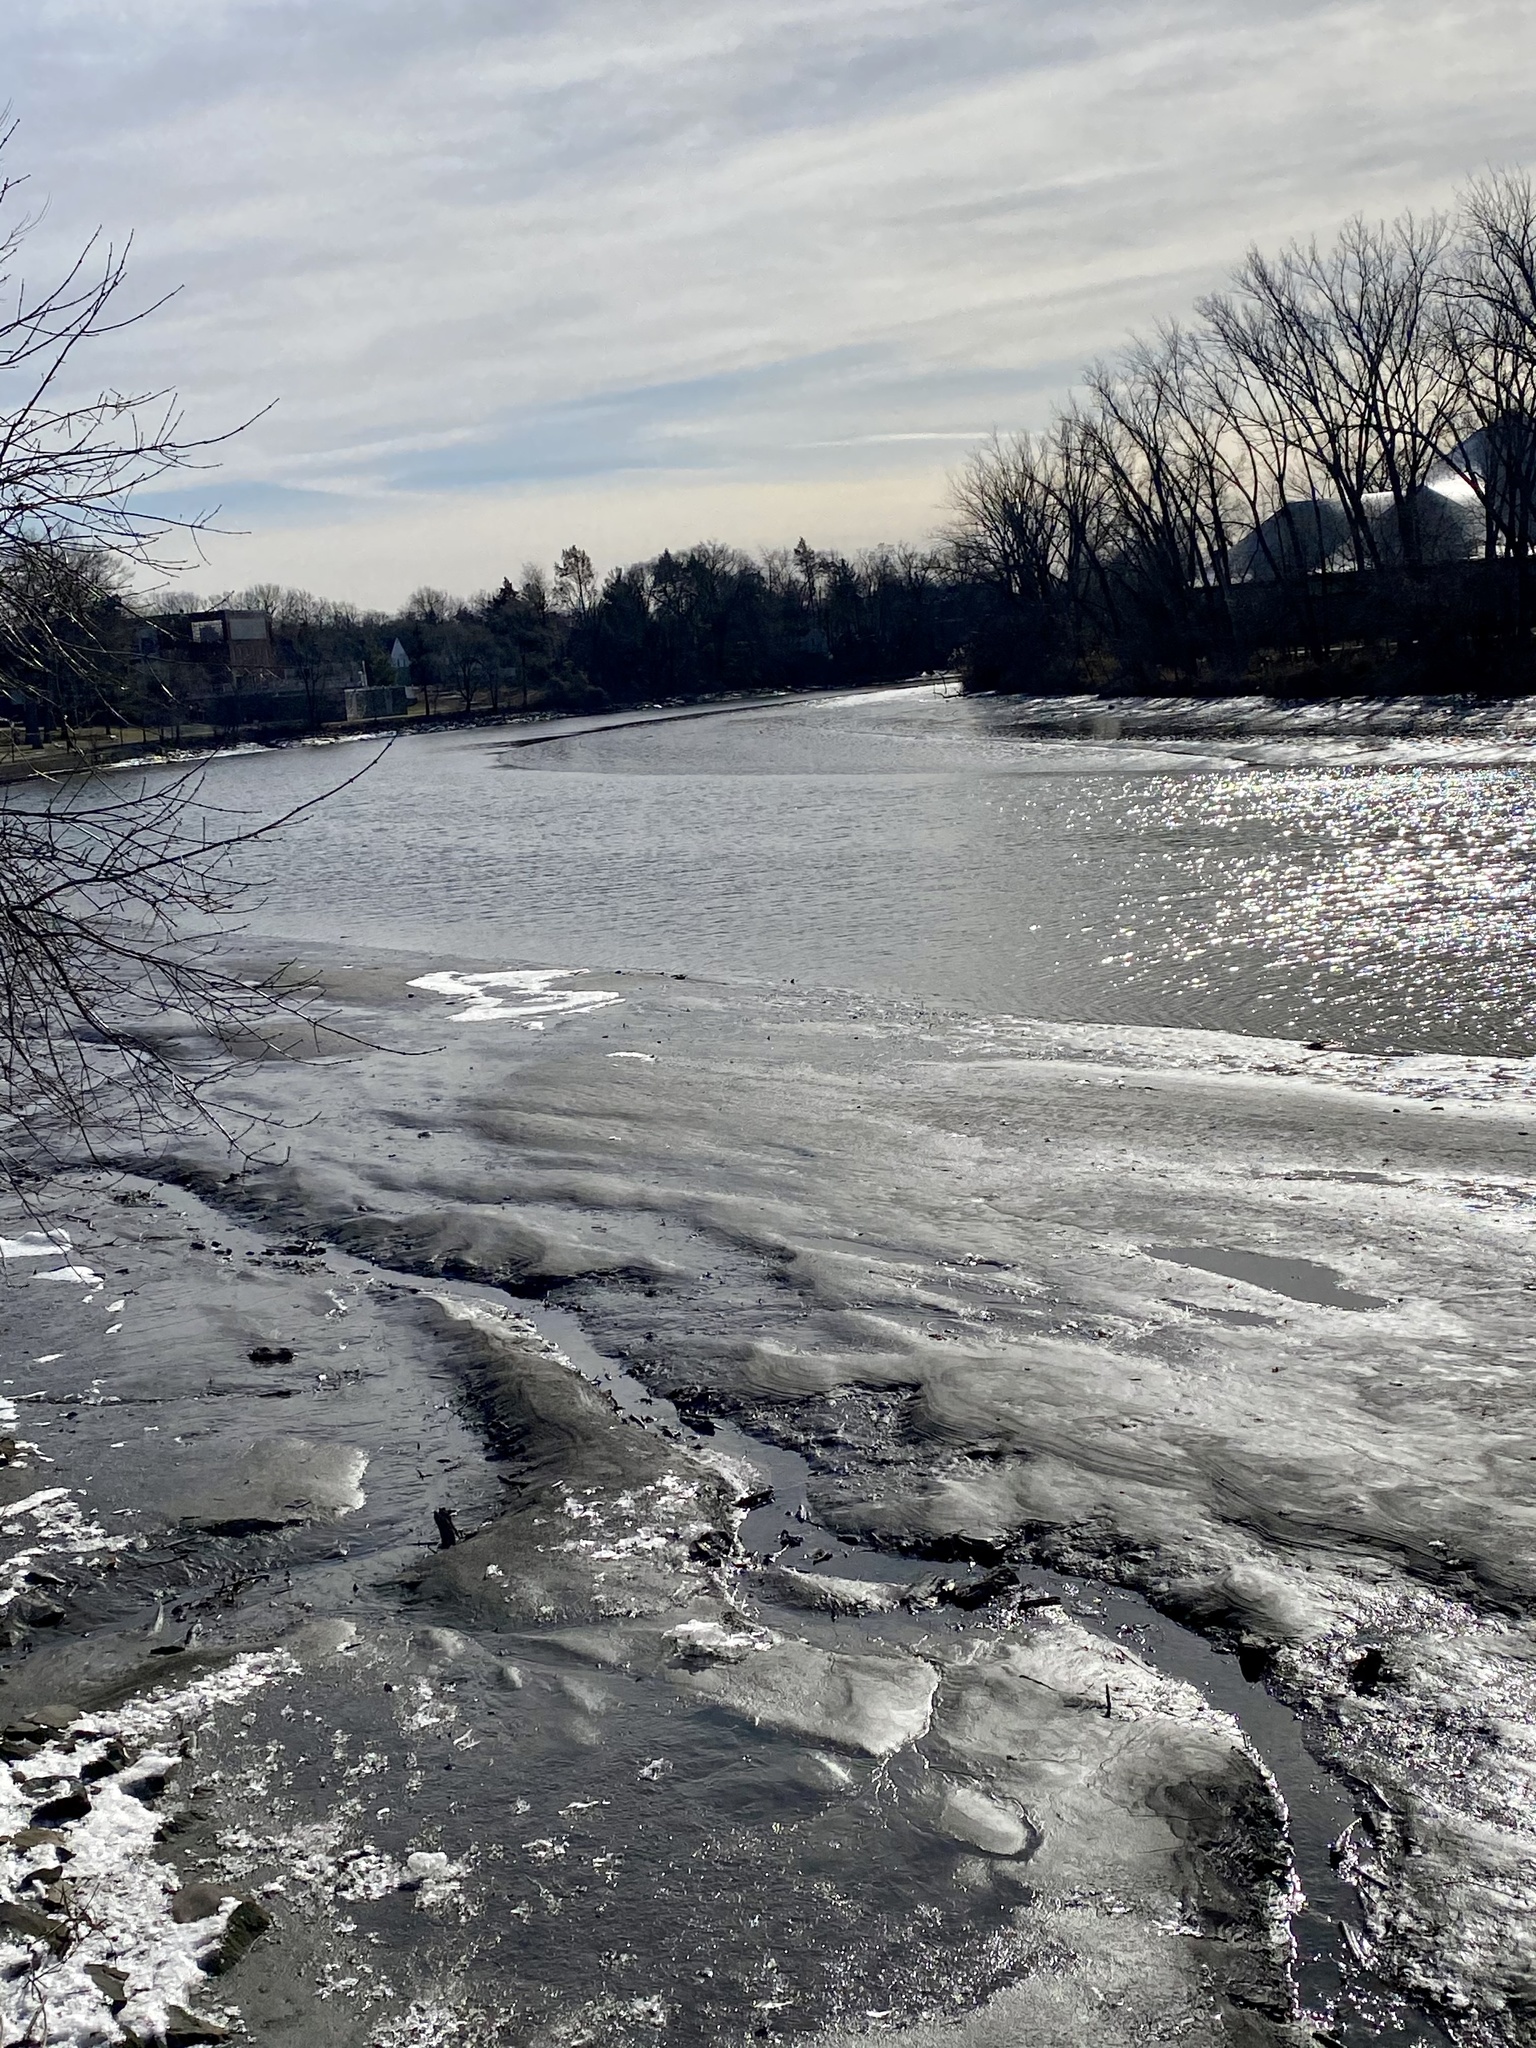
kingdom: Plantae
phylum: Tracheophyta
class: Magnoliopsida
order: Lamiales
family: Scrophulariaceae
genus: Verbascum
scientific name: Verbascum thapsus
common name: Common mullein
